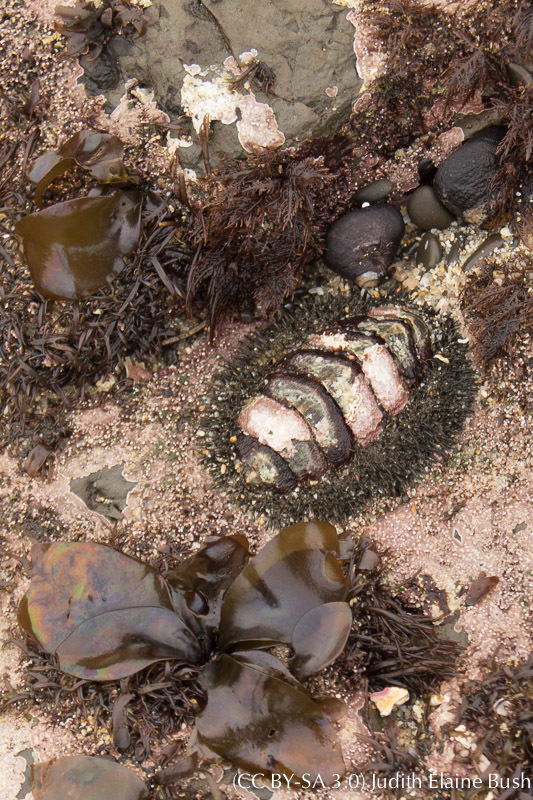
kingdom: Animalia
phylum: Mollusca
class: Polyplacophora
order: Chitonida
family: Mopaliidae
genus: Mopalia
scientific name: Mopalia muscosa
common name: Mossy chiton
